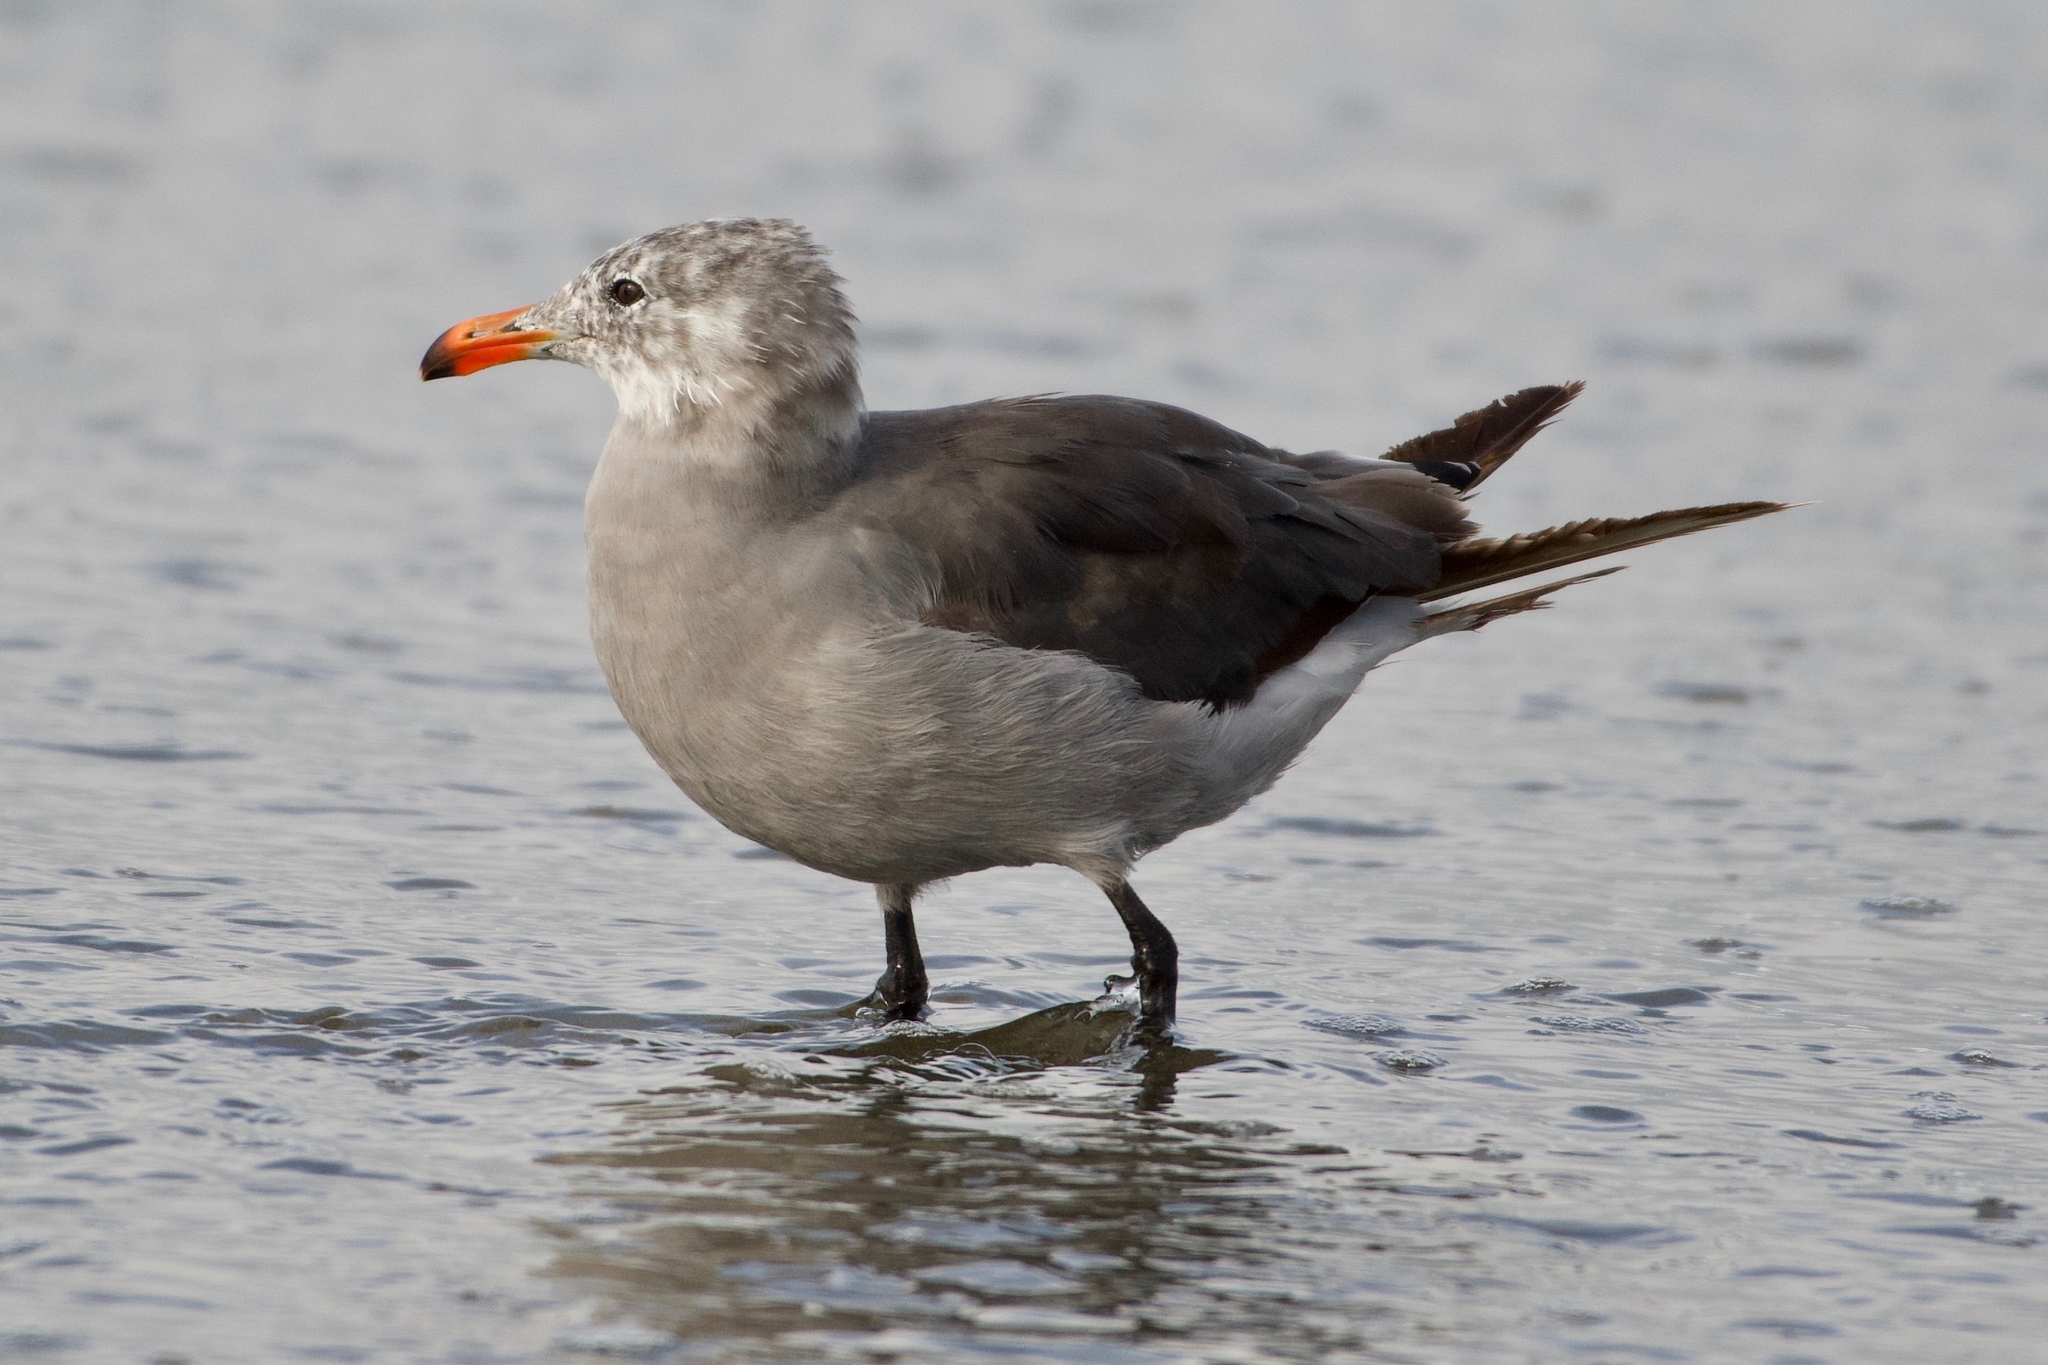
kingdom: Animalia
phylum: Chordata
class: Aves
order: Charadriiformes
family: Laridae
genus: Larus
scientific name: Larus heermanni
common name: Heermann's gull
